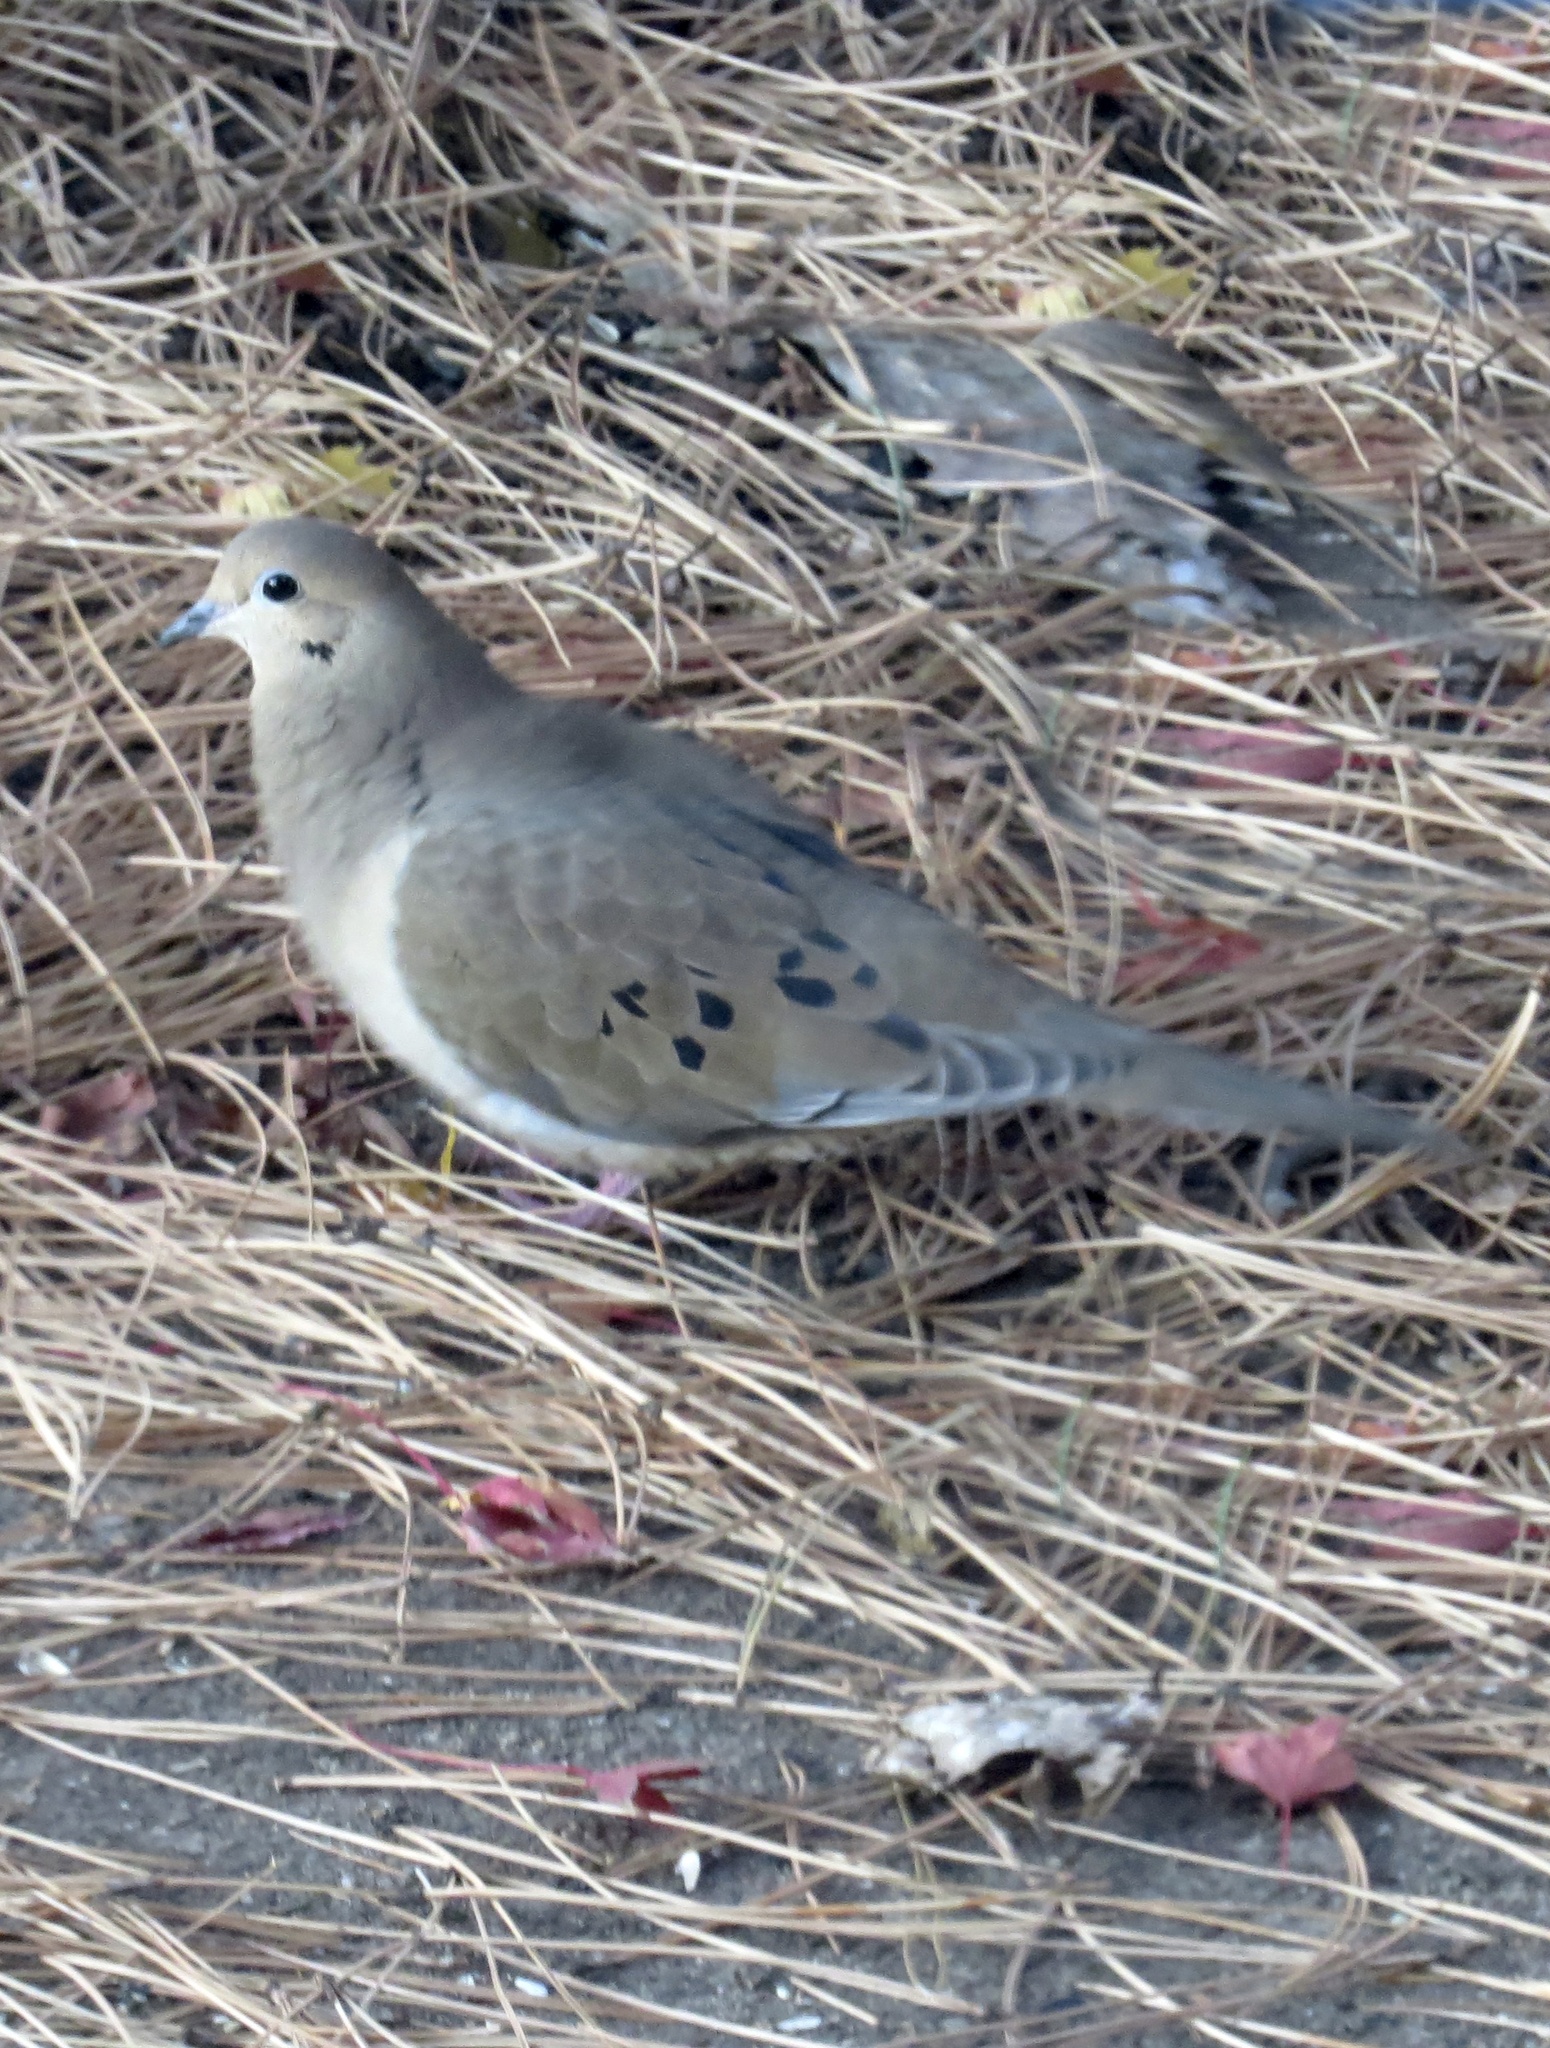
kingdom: Animalia
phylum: Chordata
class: Aves
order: Columbiformes
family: Columbidae
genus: Zenaida
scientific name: Zenaida macroura
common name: Mourning dove
